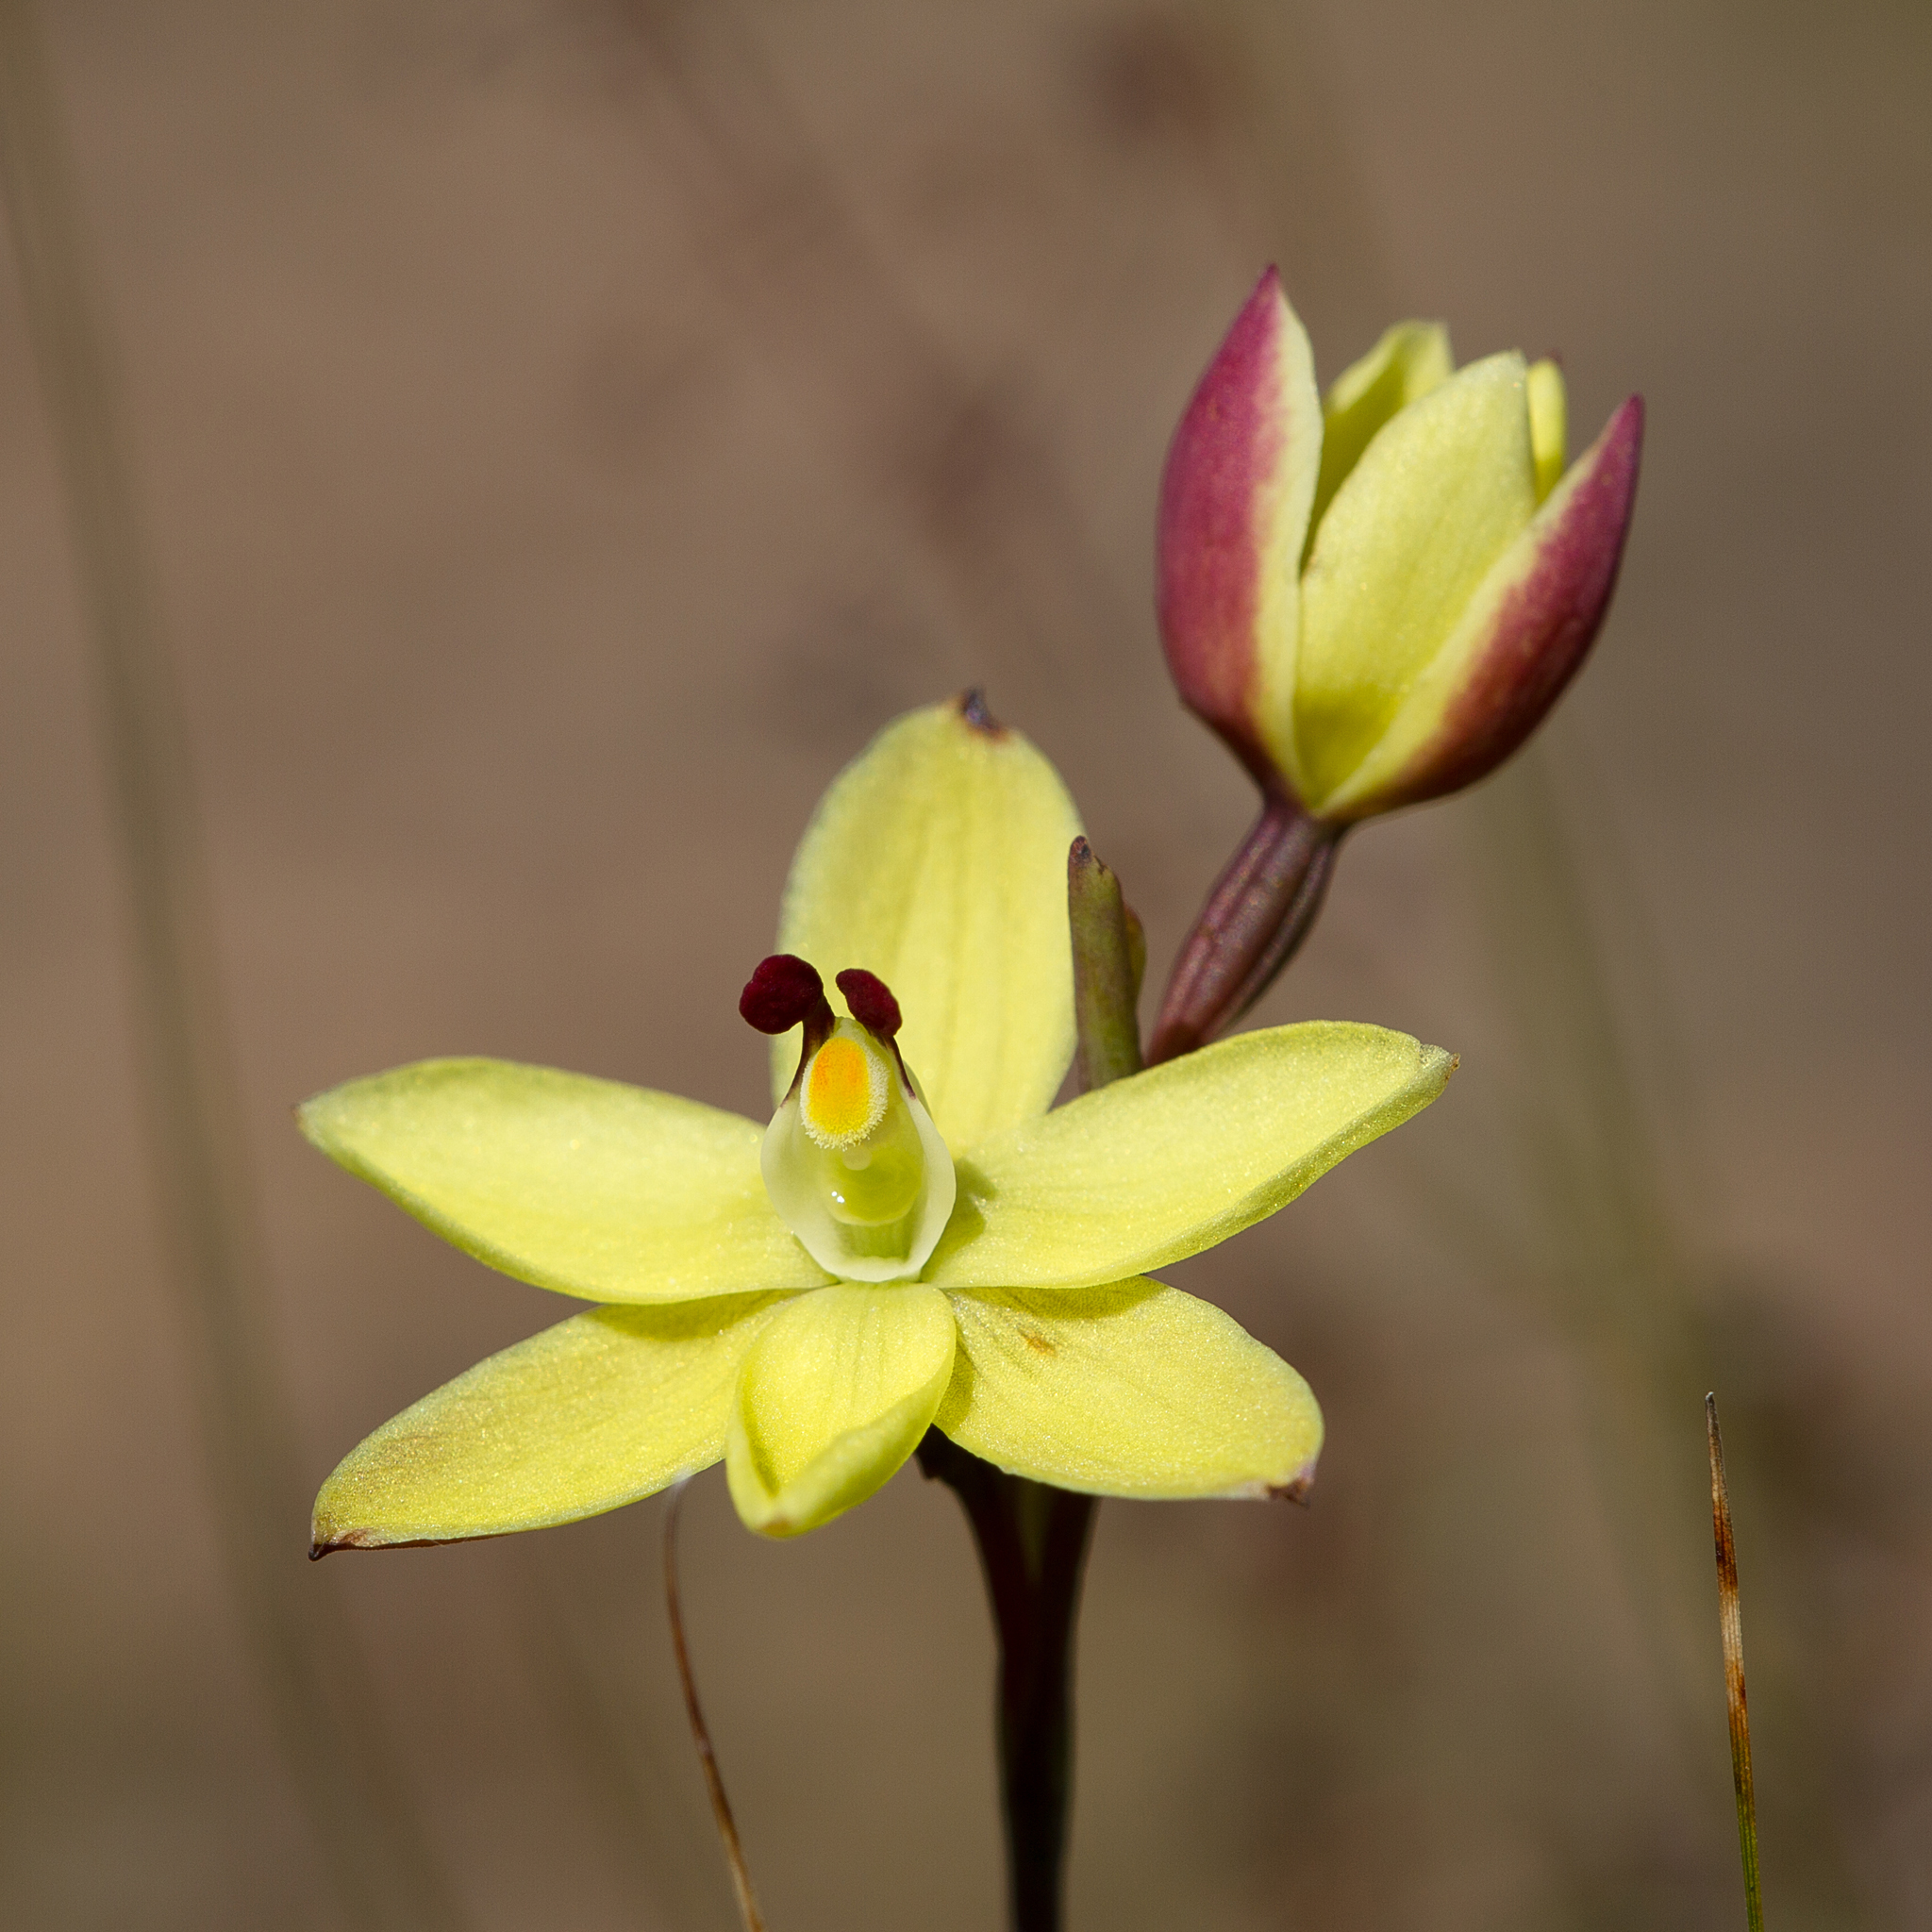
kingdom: Plantae
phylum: Tracheophyta
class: Liliopsida
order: Asparagales
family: Orchidaceae
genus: Thelymitra
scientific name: Thelymitra antennifera
